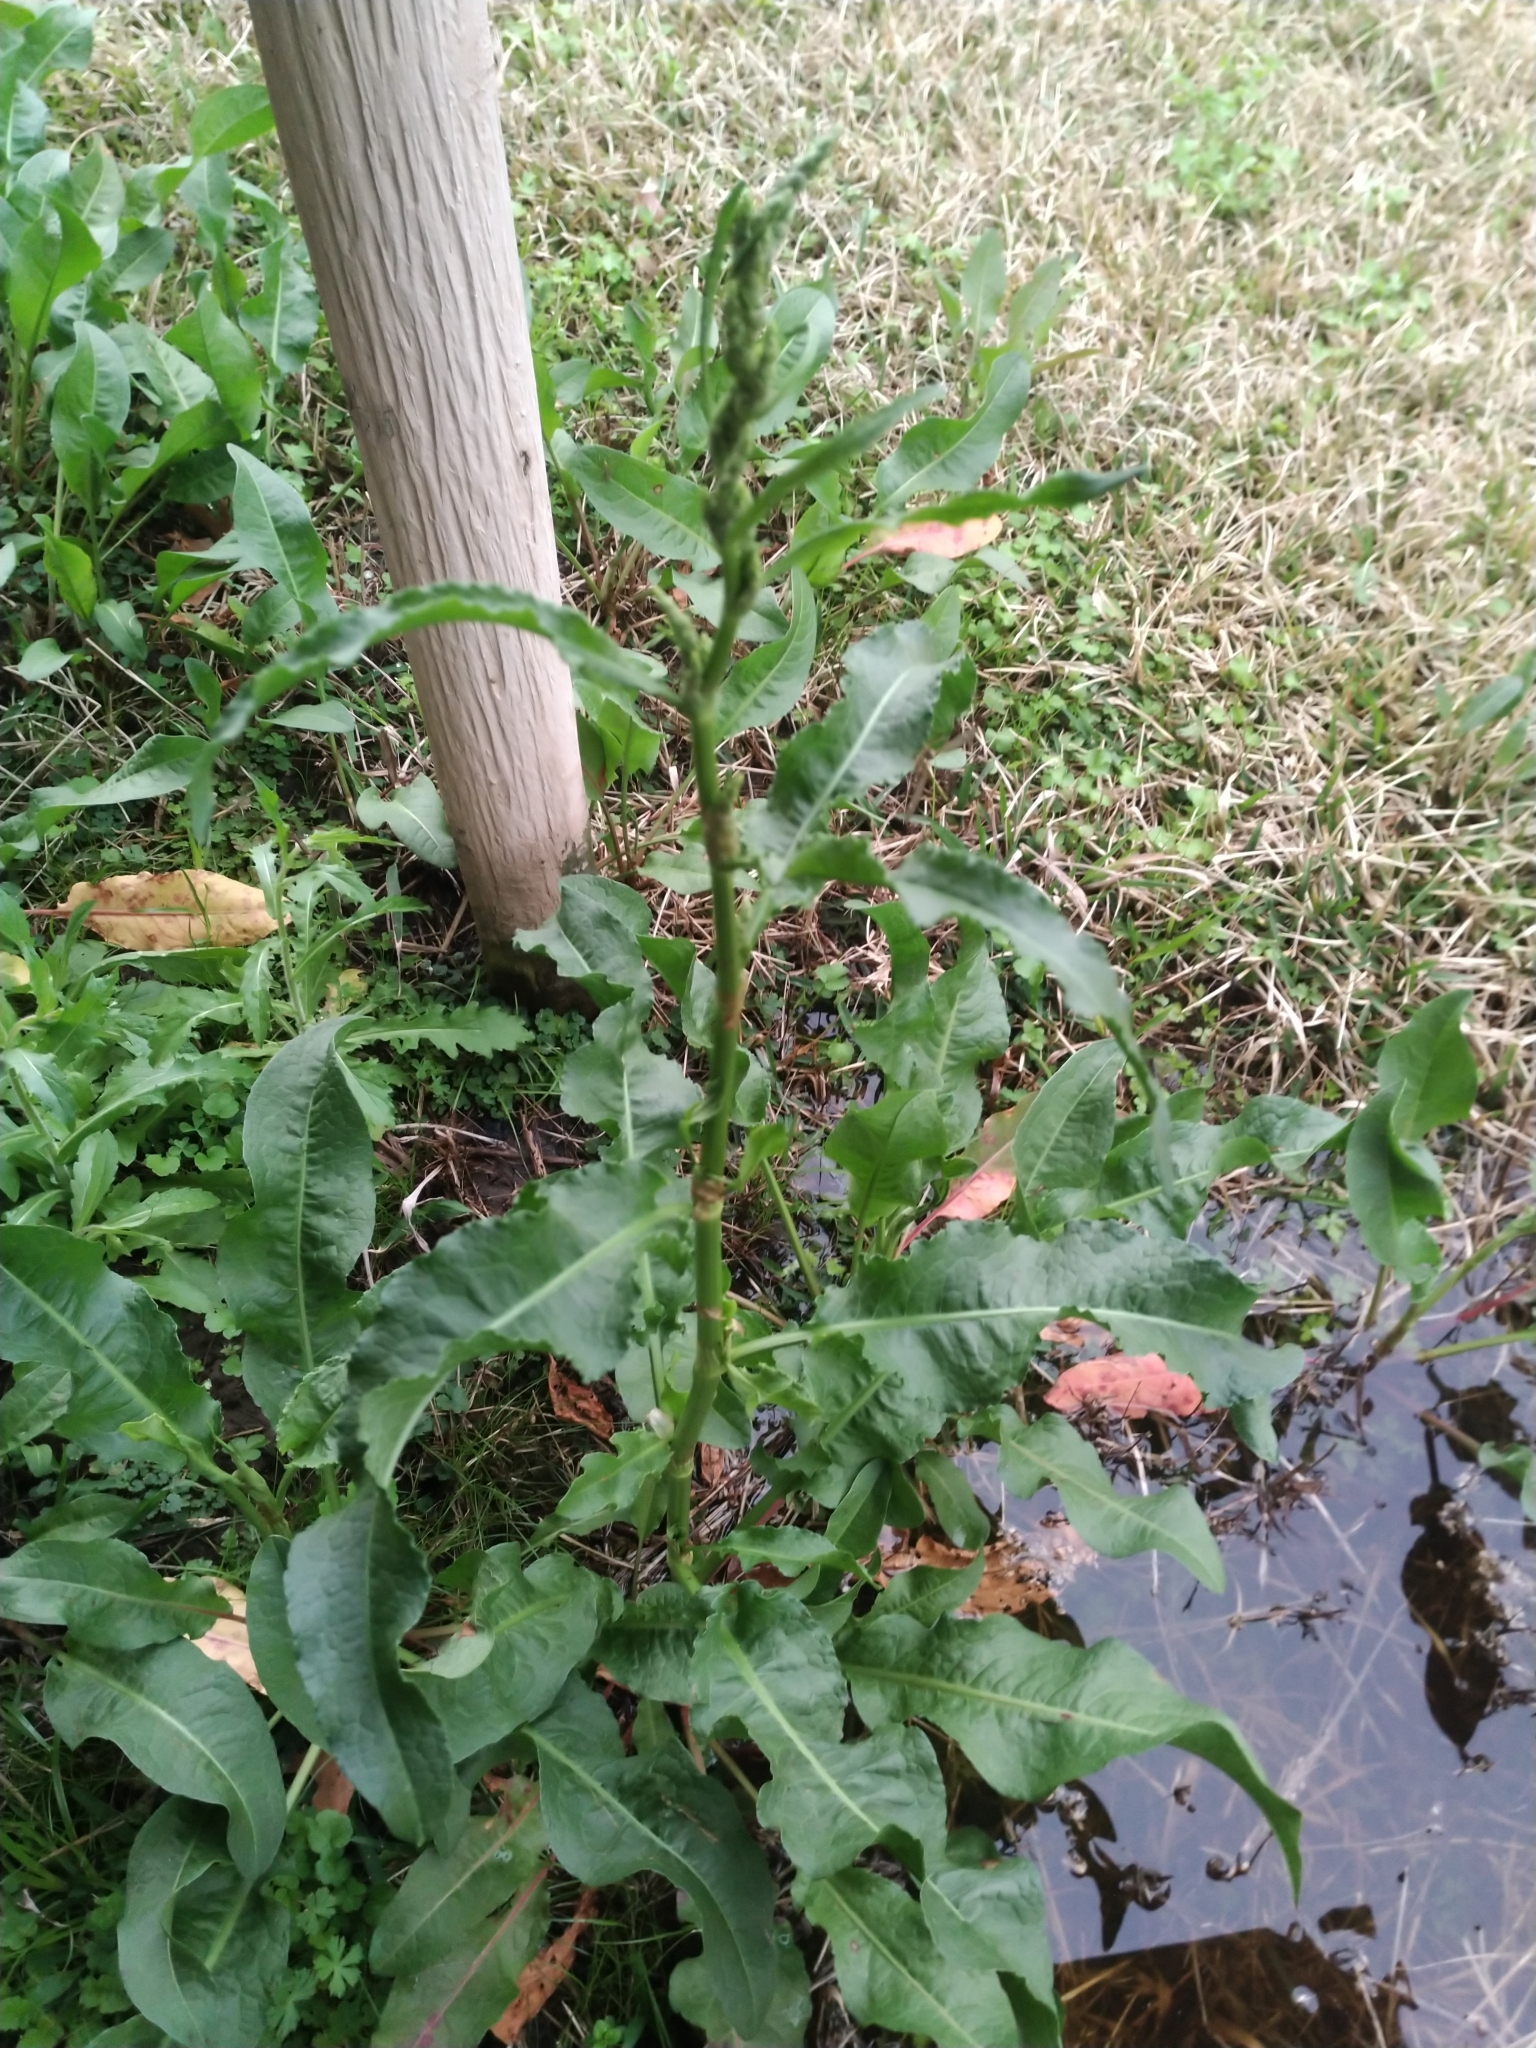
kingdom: Plantae
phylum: Tracheophyta
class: Magnoliopsida
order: Caryophyllales
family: Polygonaceae
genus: Rumex
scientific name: Rumex crispus
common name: Curled dock
